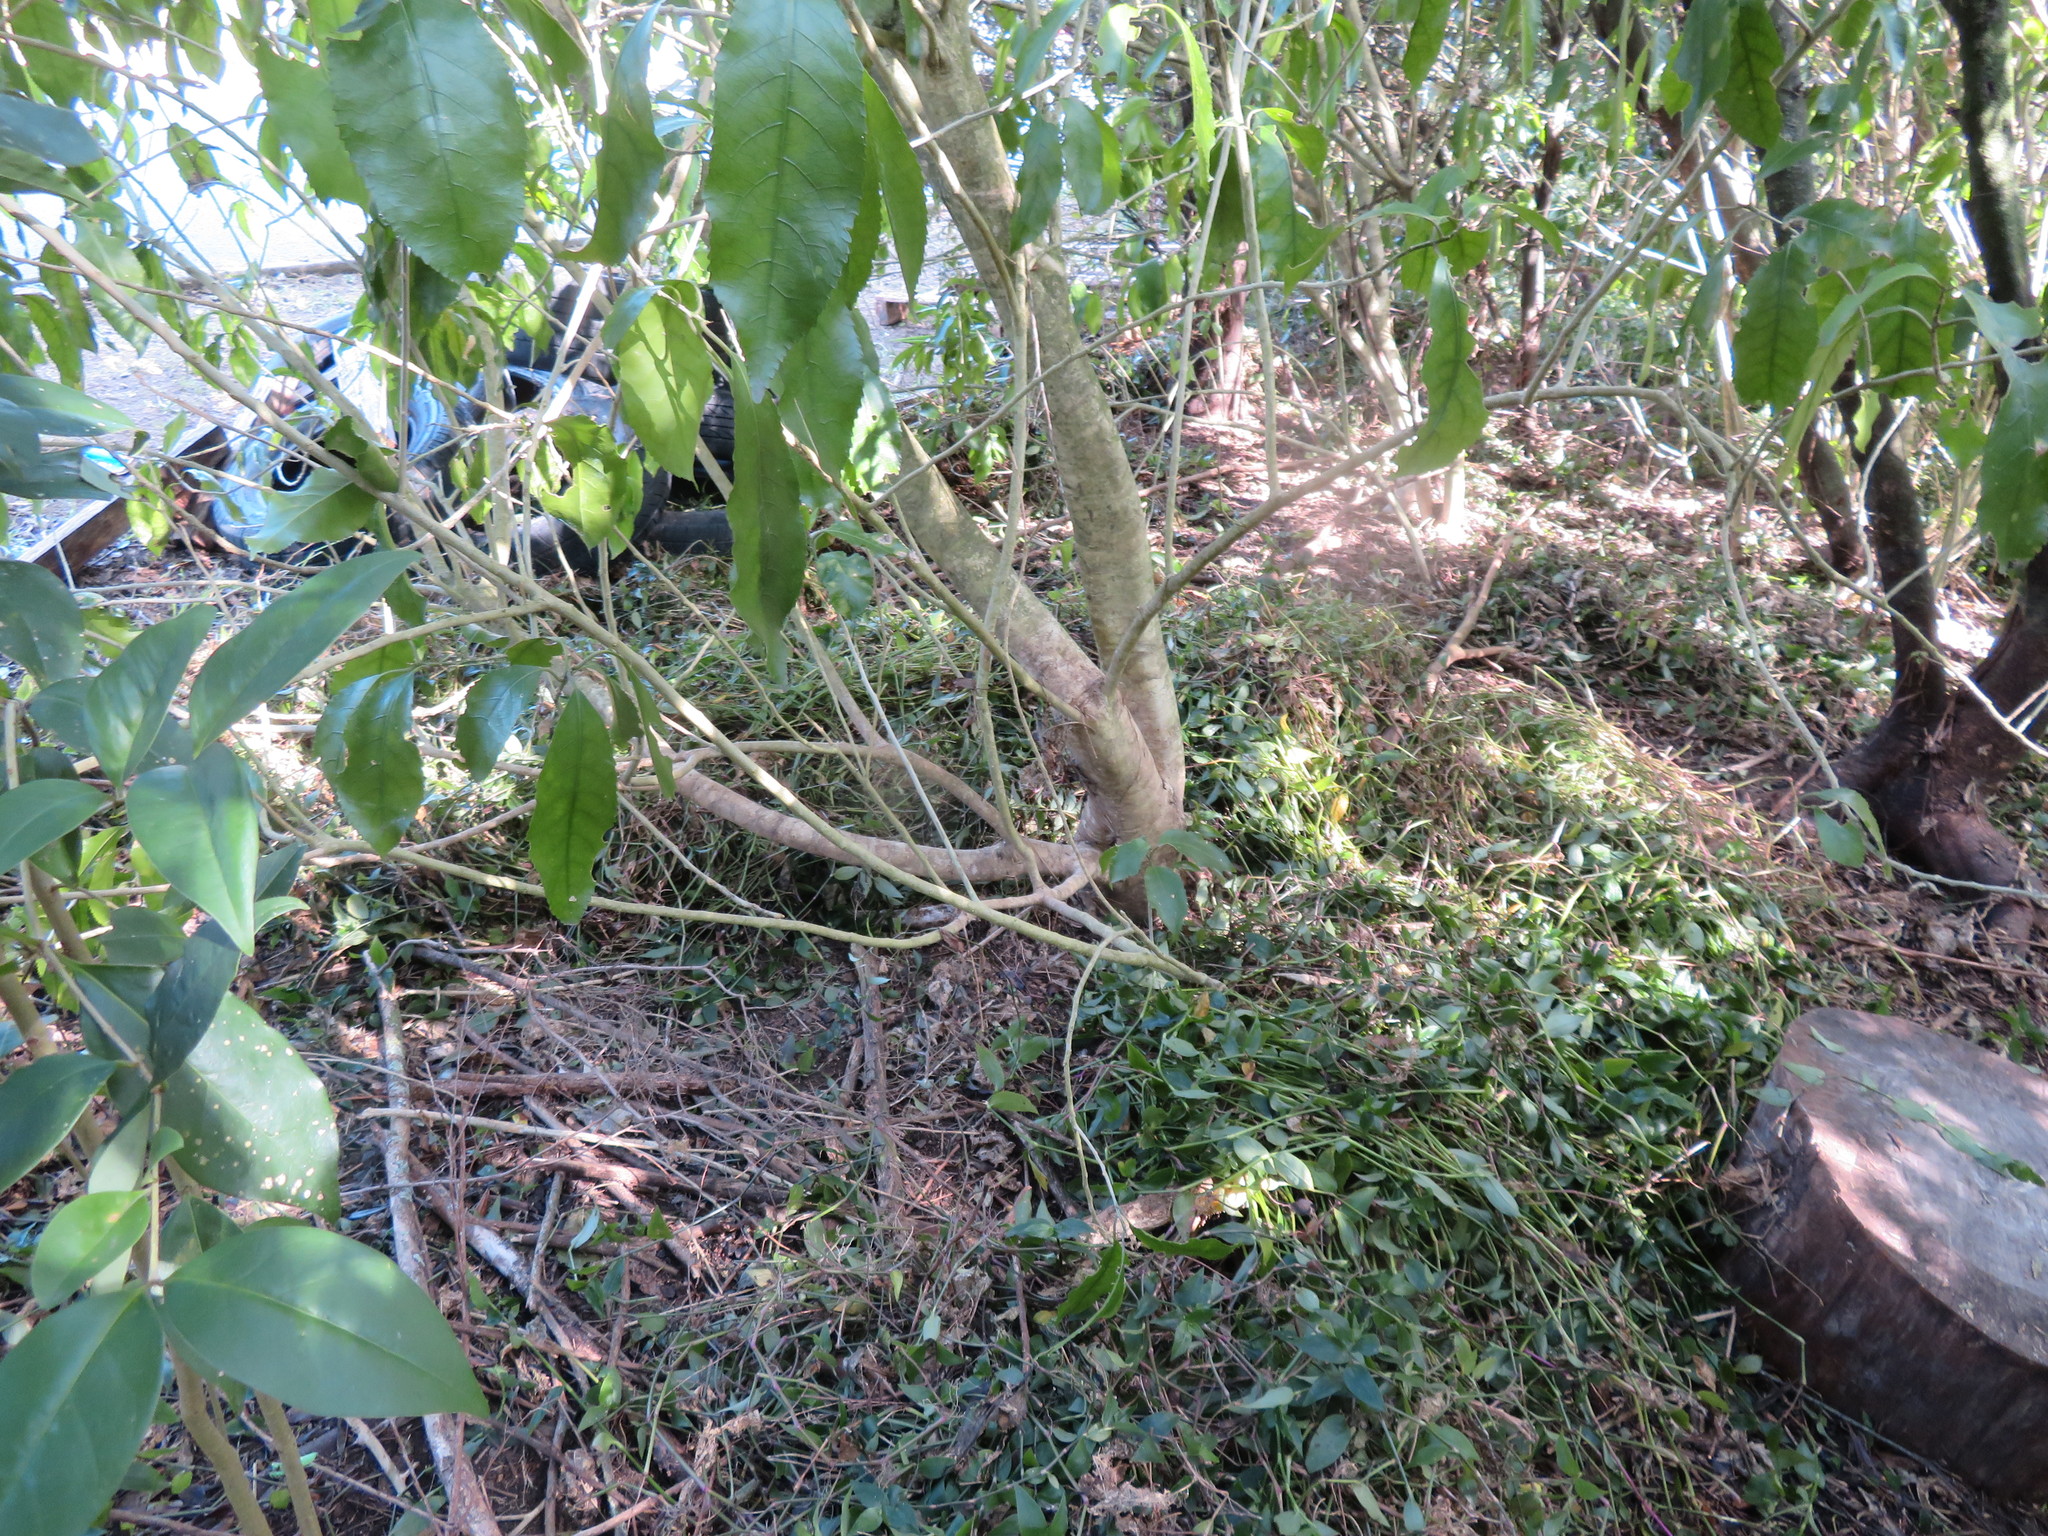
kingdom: Plantae
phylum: Tracheophyta
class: Magnoliopsida
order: Malpighiales
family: Violaceae
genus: Melicytus
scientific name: Melicytus ramiflorus
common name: Mahoe
